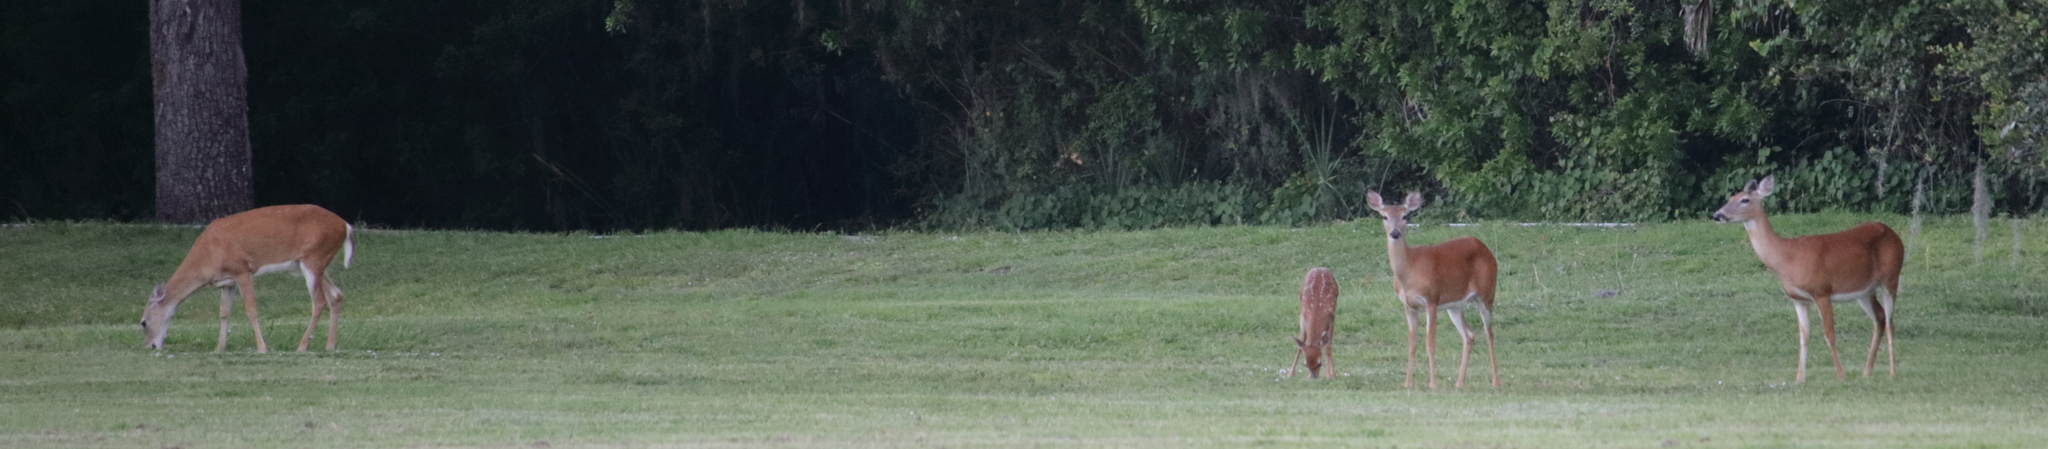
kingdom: Animalia
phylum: Chordata
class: Mammalia
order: Artiodactyla
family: Cervidae
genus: Odocoileus
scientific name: Odocoileus virginianus
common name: White-tailed deer
